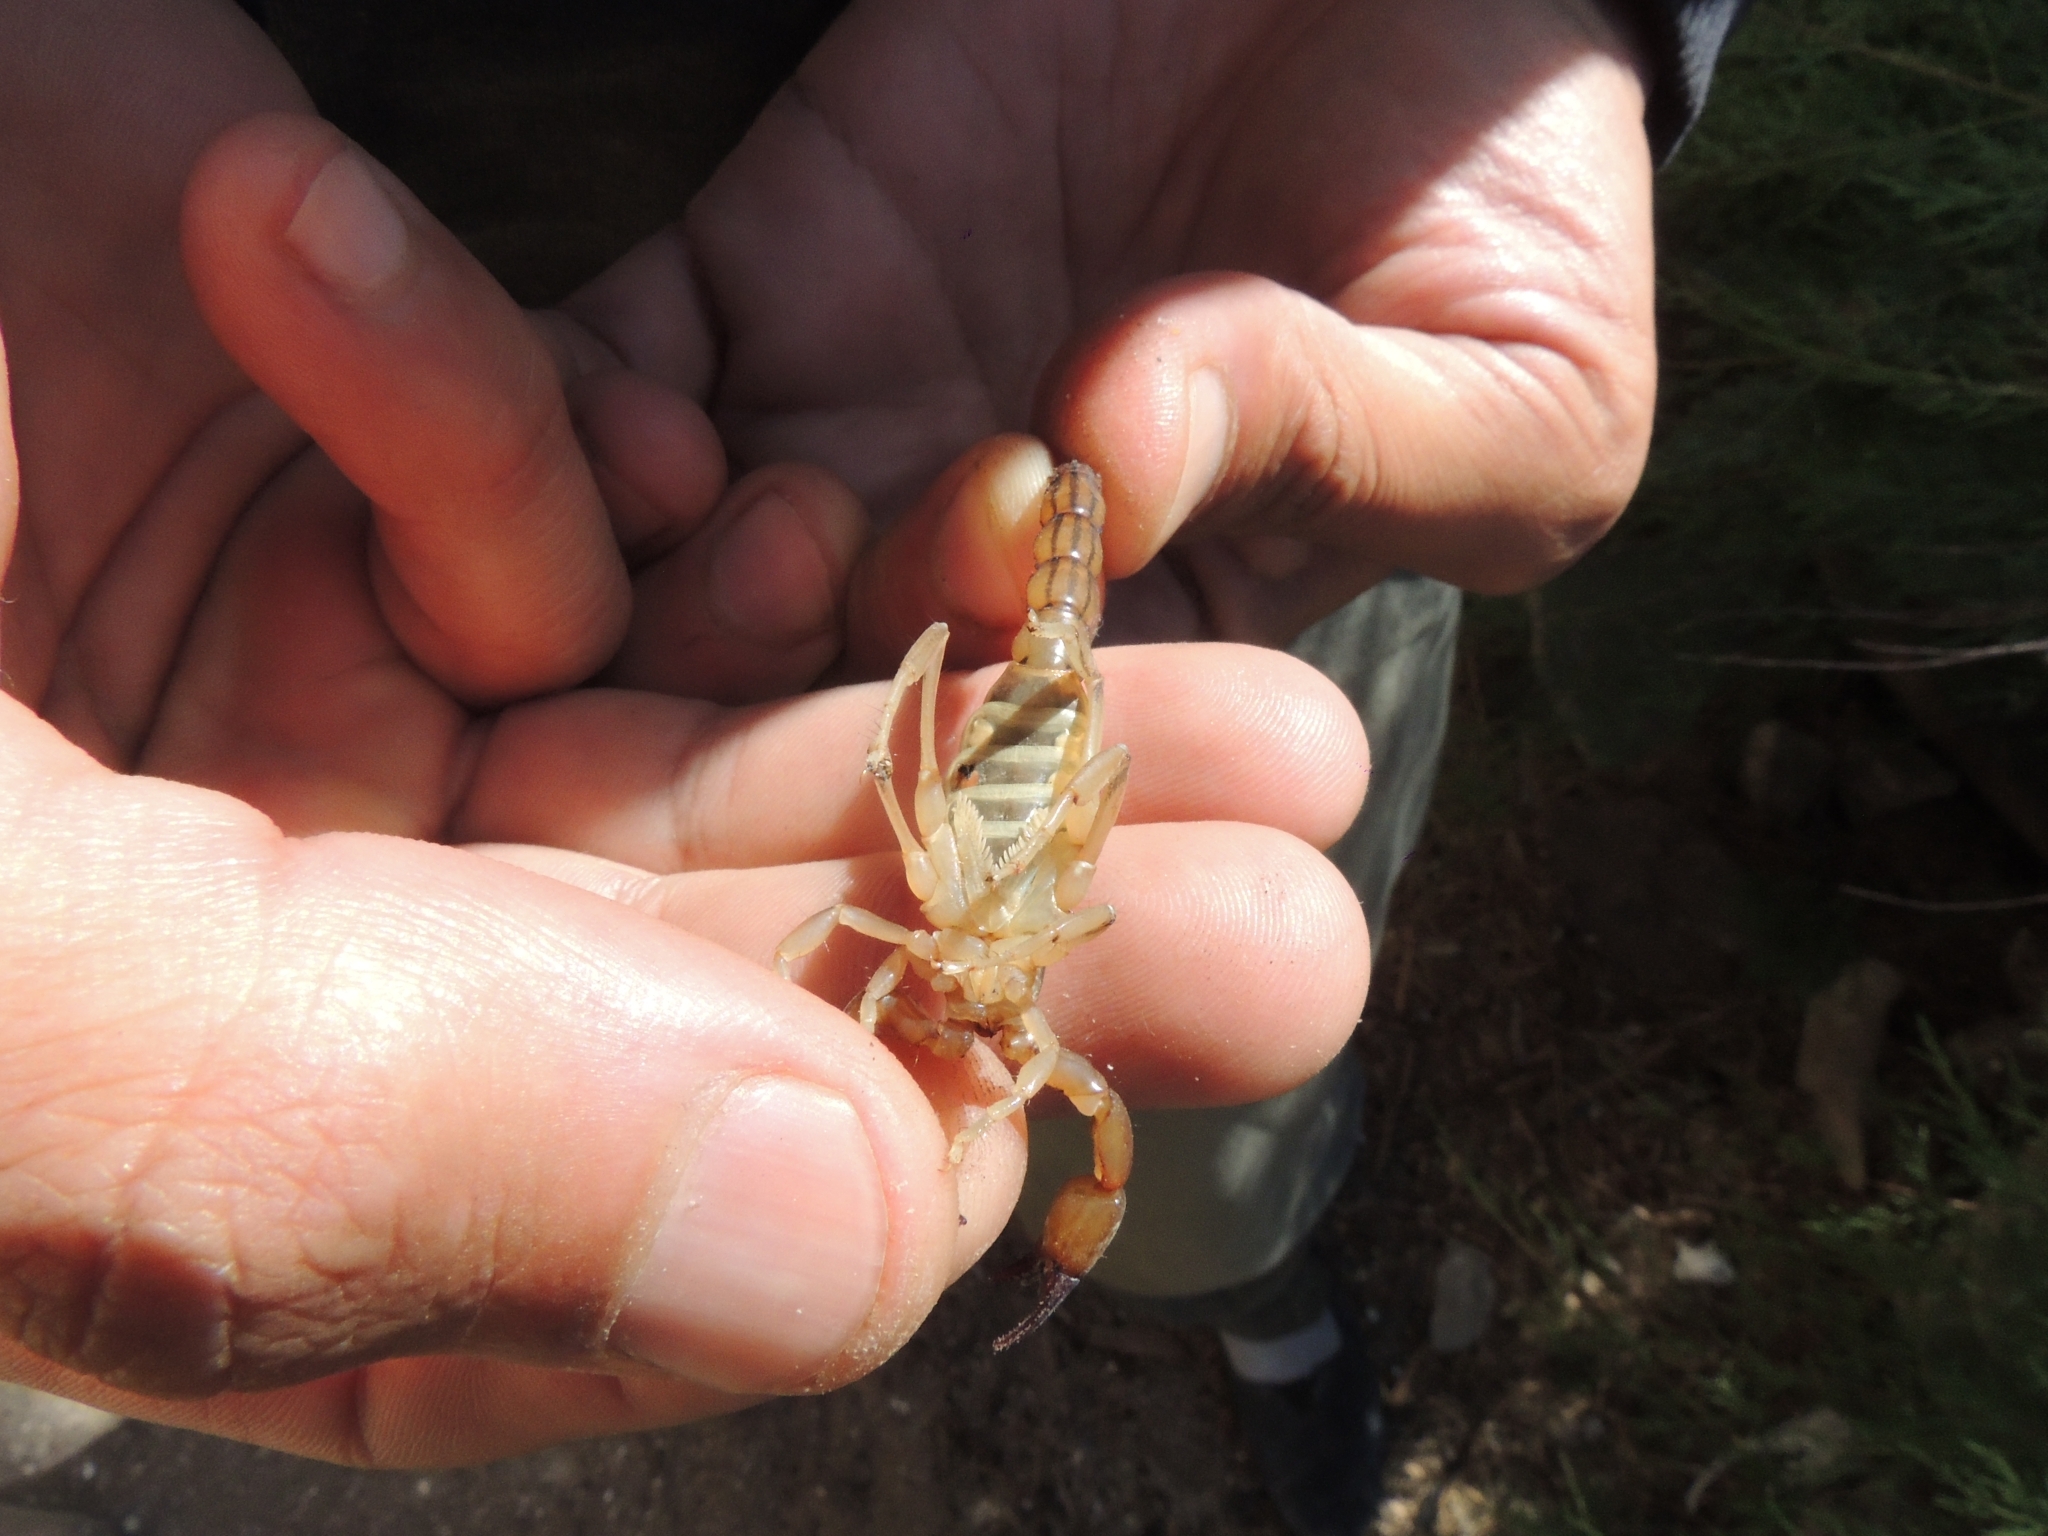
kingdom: Animalia
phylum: Arthropoda
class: Arachnida
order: Scorpiones
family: Bothriuridae
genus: Bothriurus
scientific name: Bothriurus burmeisteri
